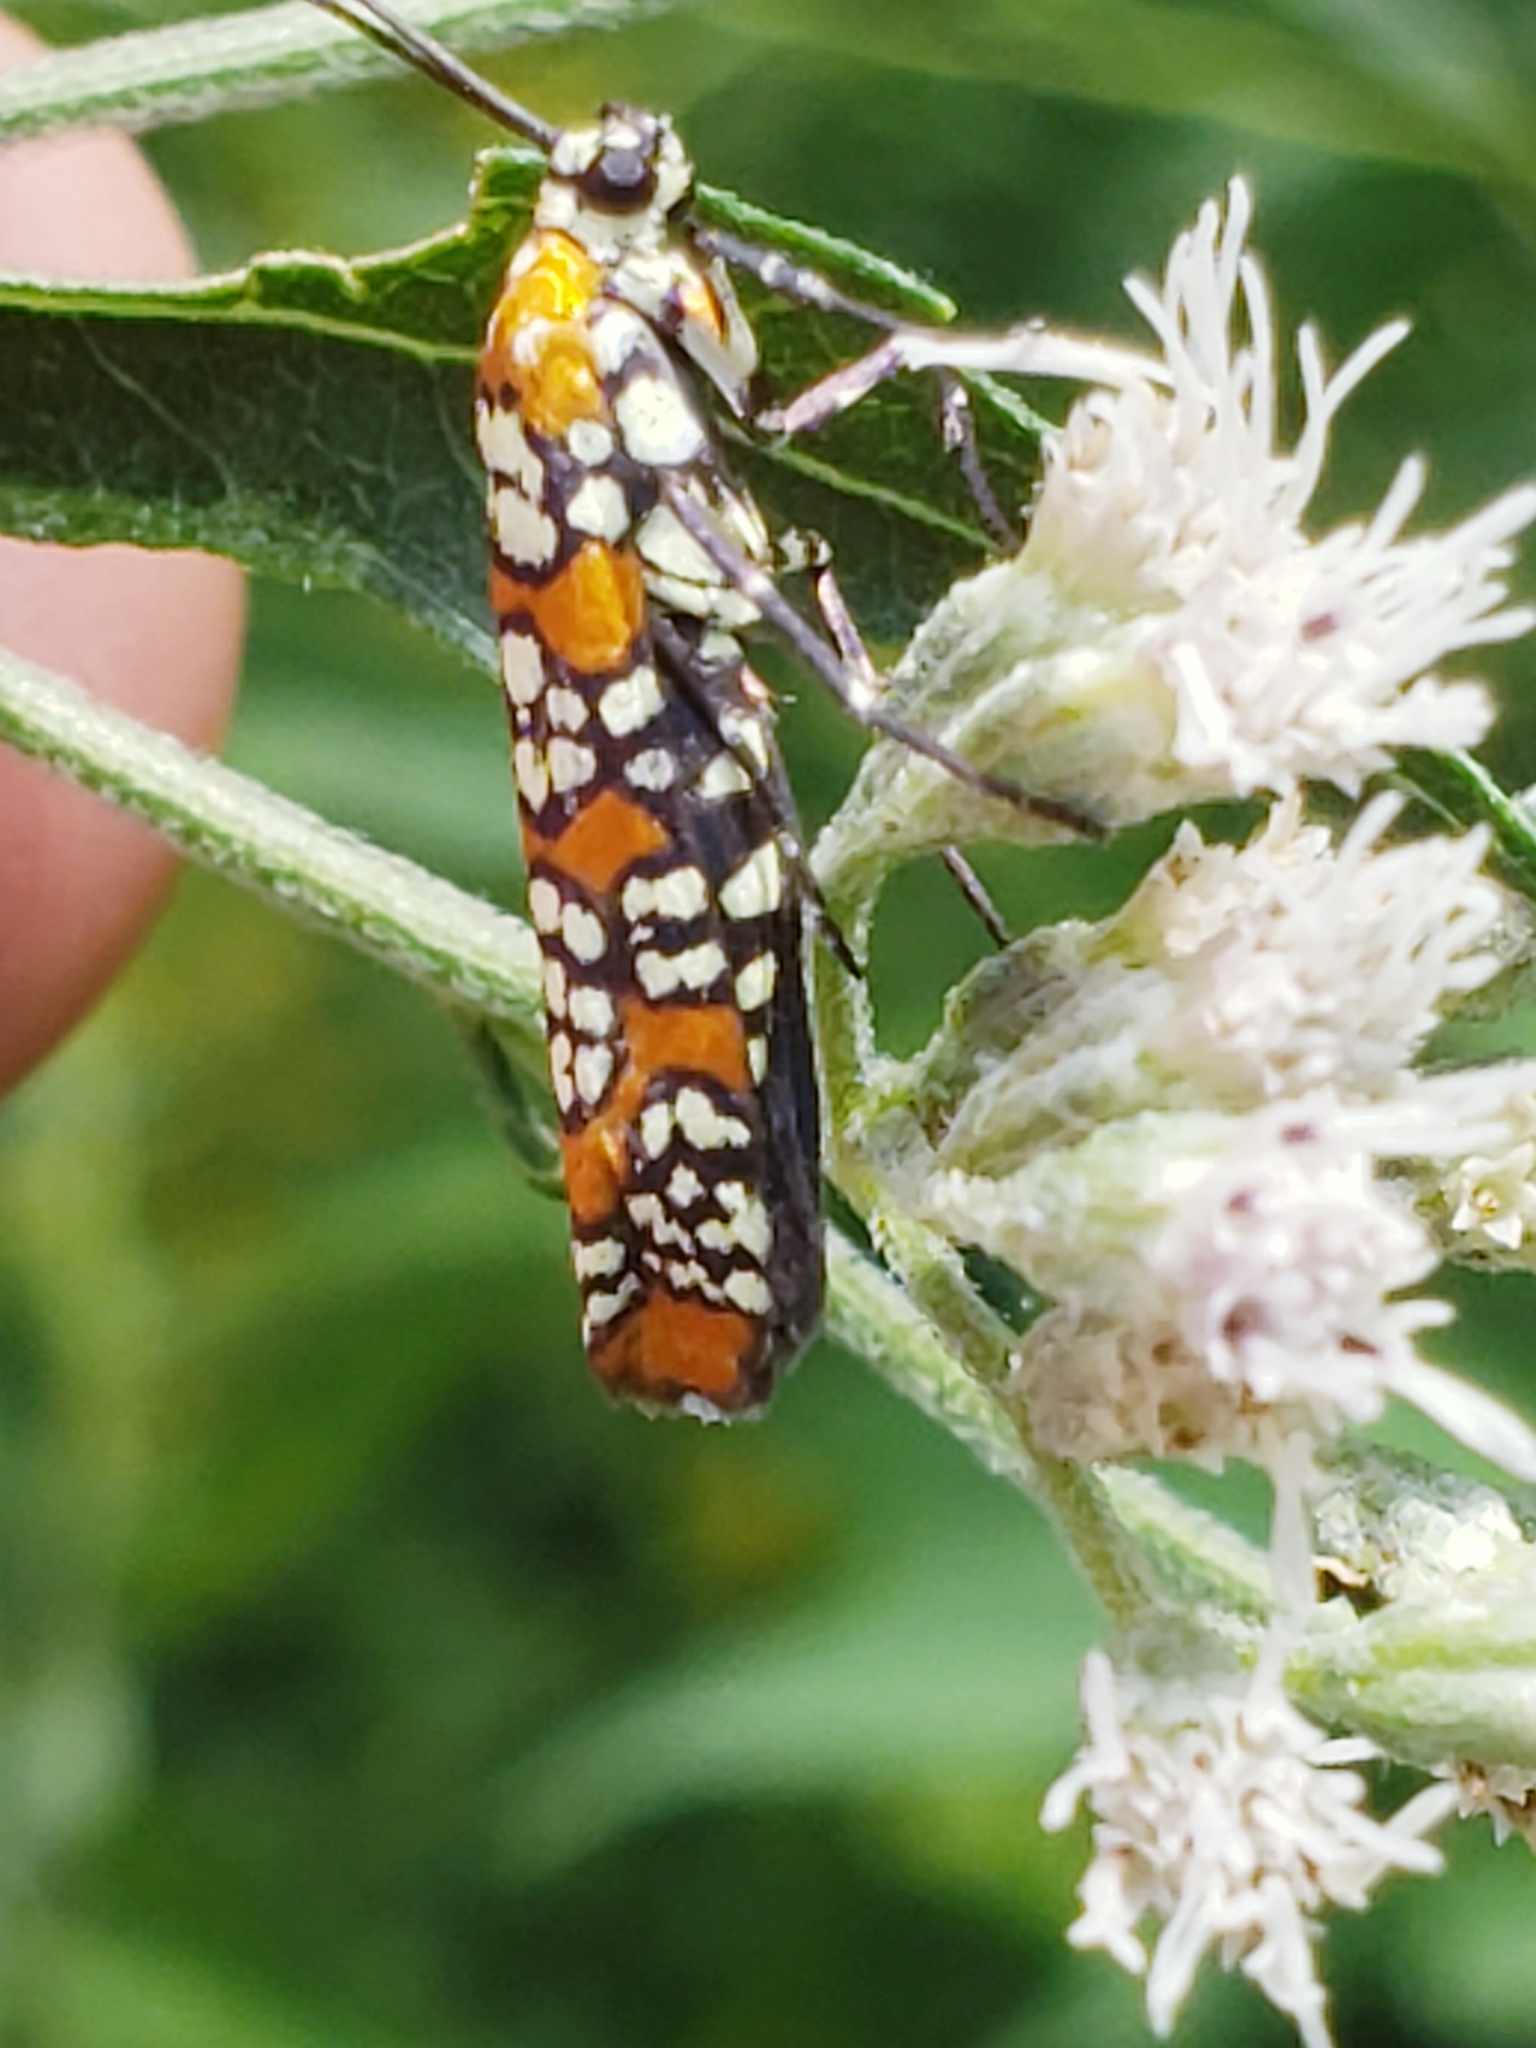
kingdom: Animalia
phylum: Arthropoda
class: Insecta
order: Lepidoptera
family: Attevidae
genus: Atteva
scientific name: Atteva punctella
